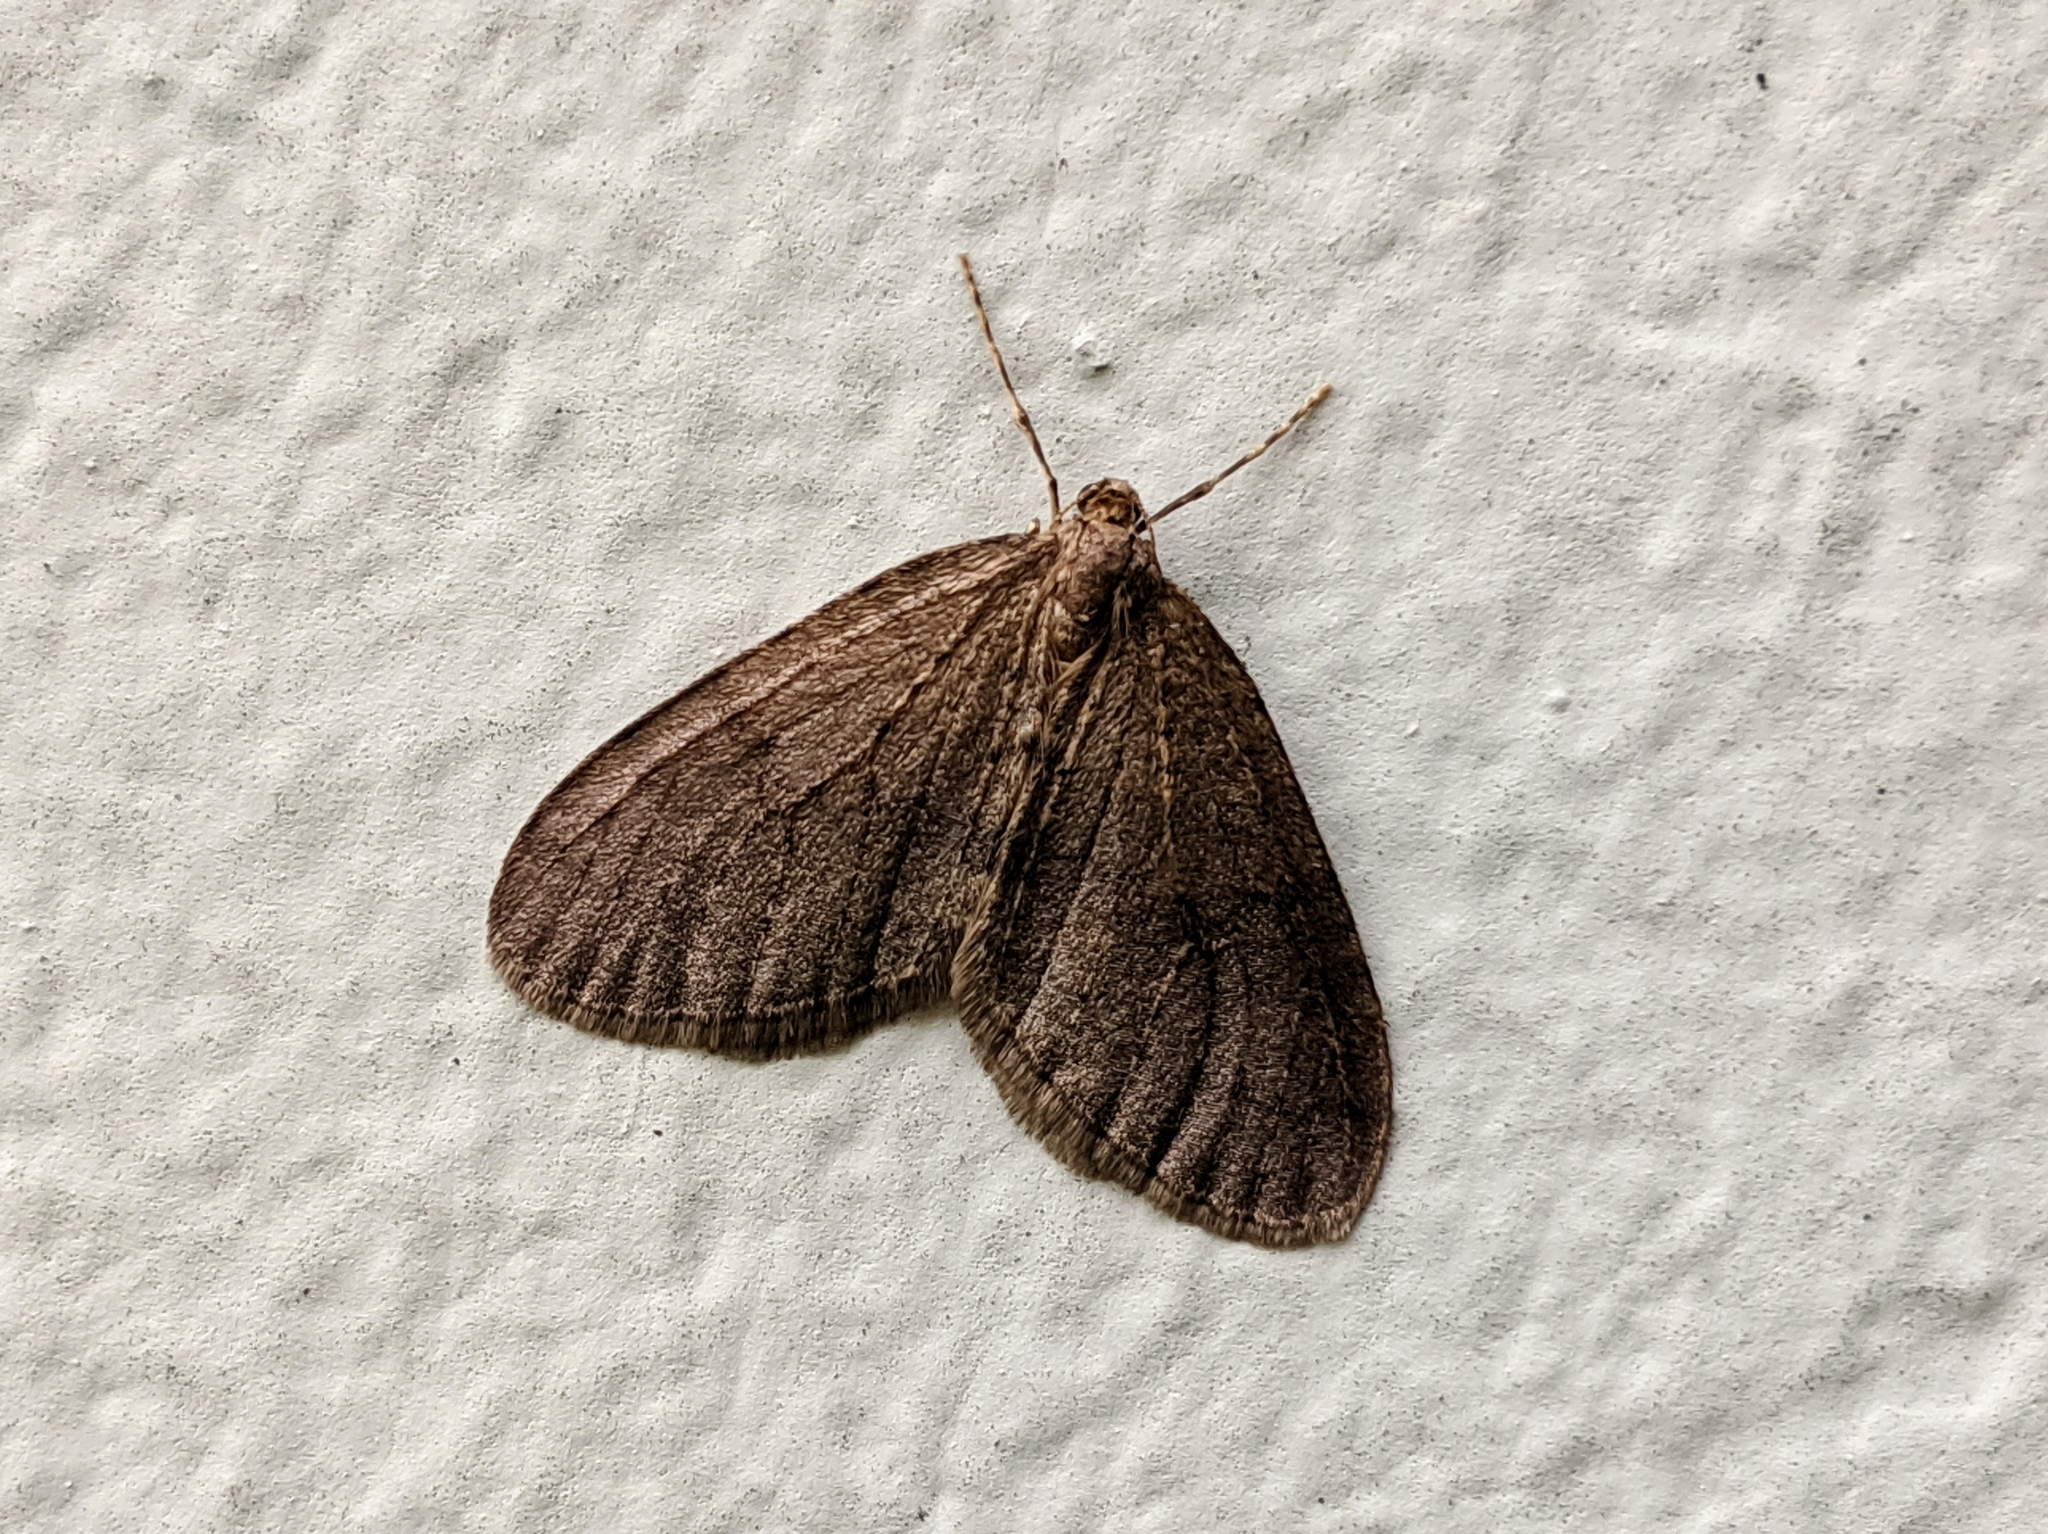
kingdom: Animalia
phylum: Arthropoda
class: Insecta
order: Lepidoptera
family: Geometridae
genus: Operophtera
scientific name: Operophtera brumata
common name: Winter moth
